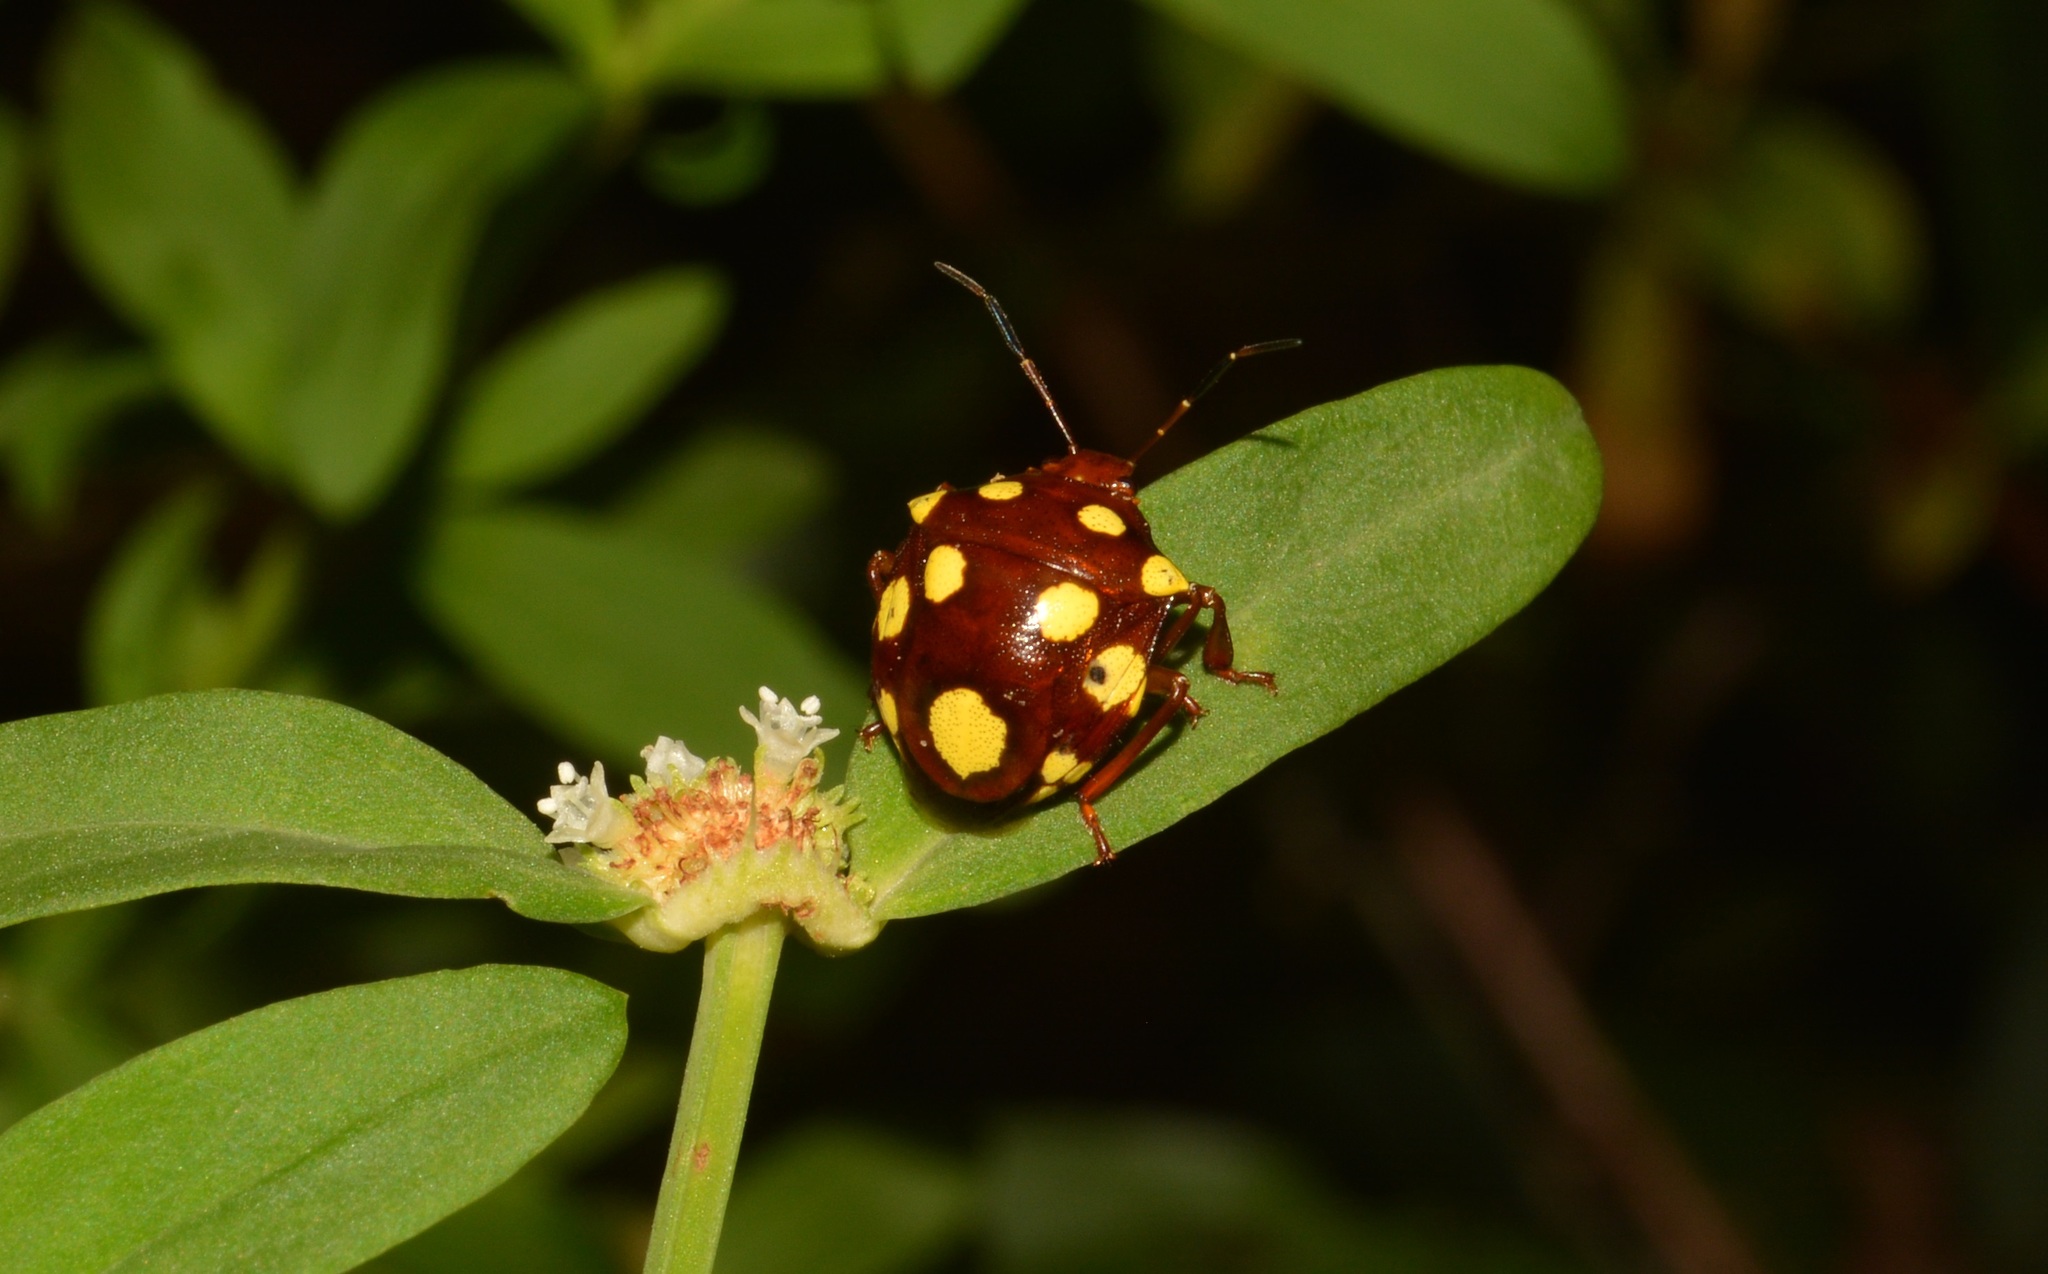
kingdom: Animalia
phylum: Arthropoda
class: Insecta
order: Hemiptera
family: Pentatomidae
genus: Discocera
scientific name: Discocera cayennensis
